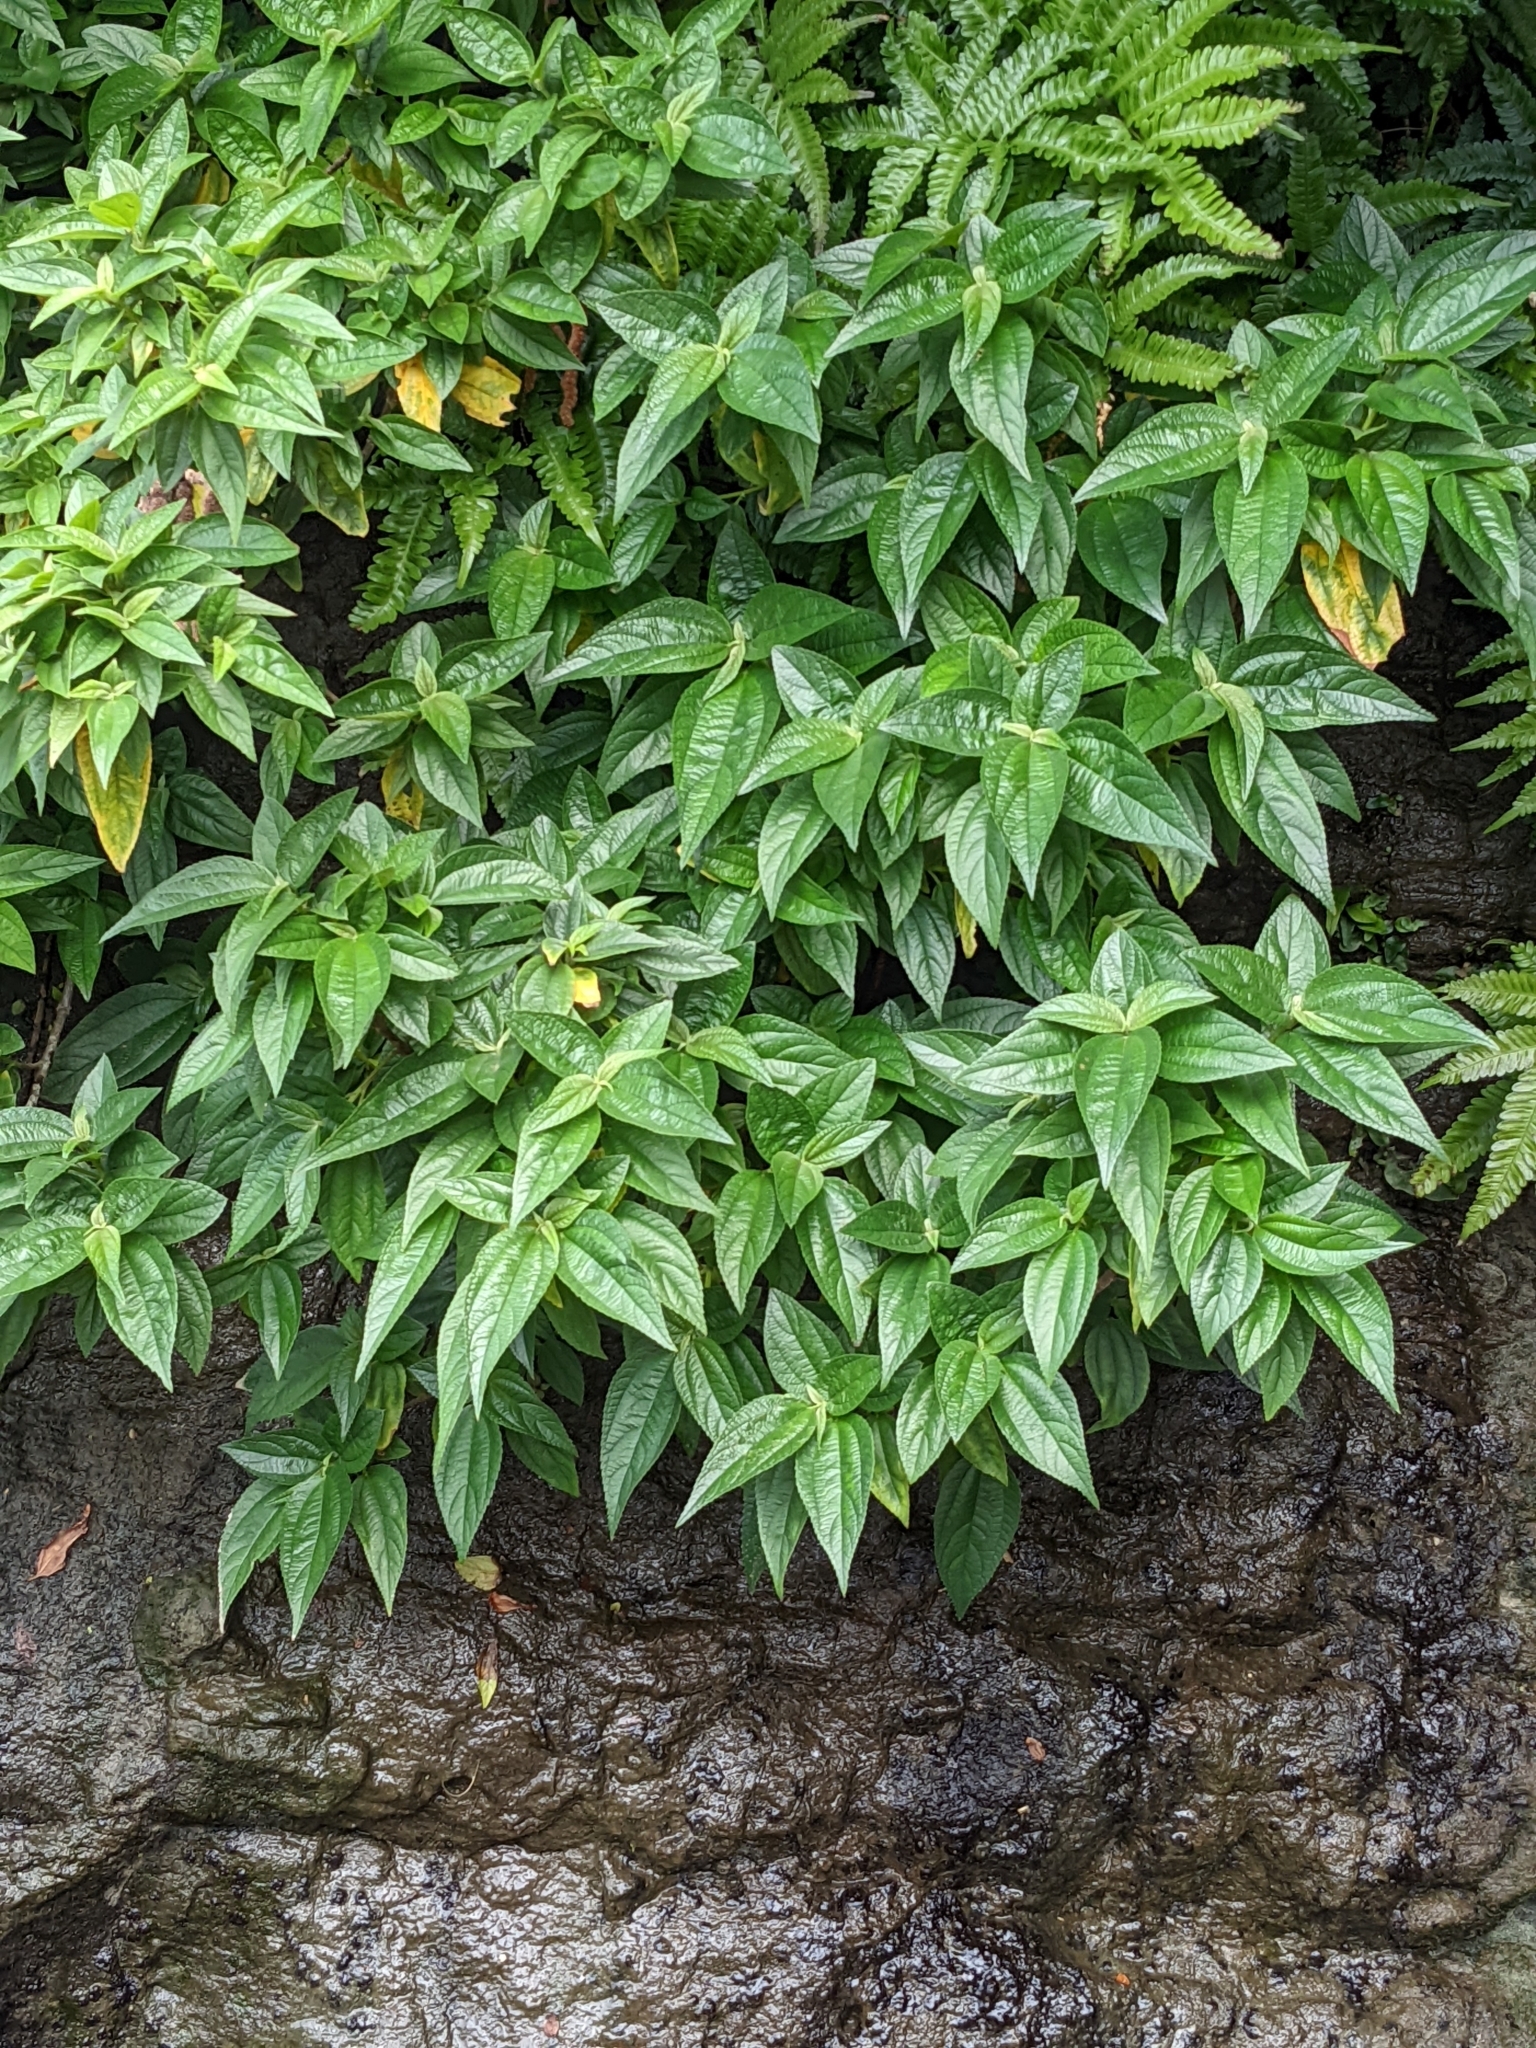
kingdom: Plantae
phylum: Tracheophyta
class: Magnoliopsida
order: Rosales
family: Urticaceae
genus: Boehmeria
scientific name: Boehmeria densiflora
